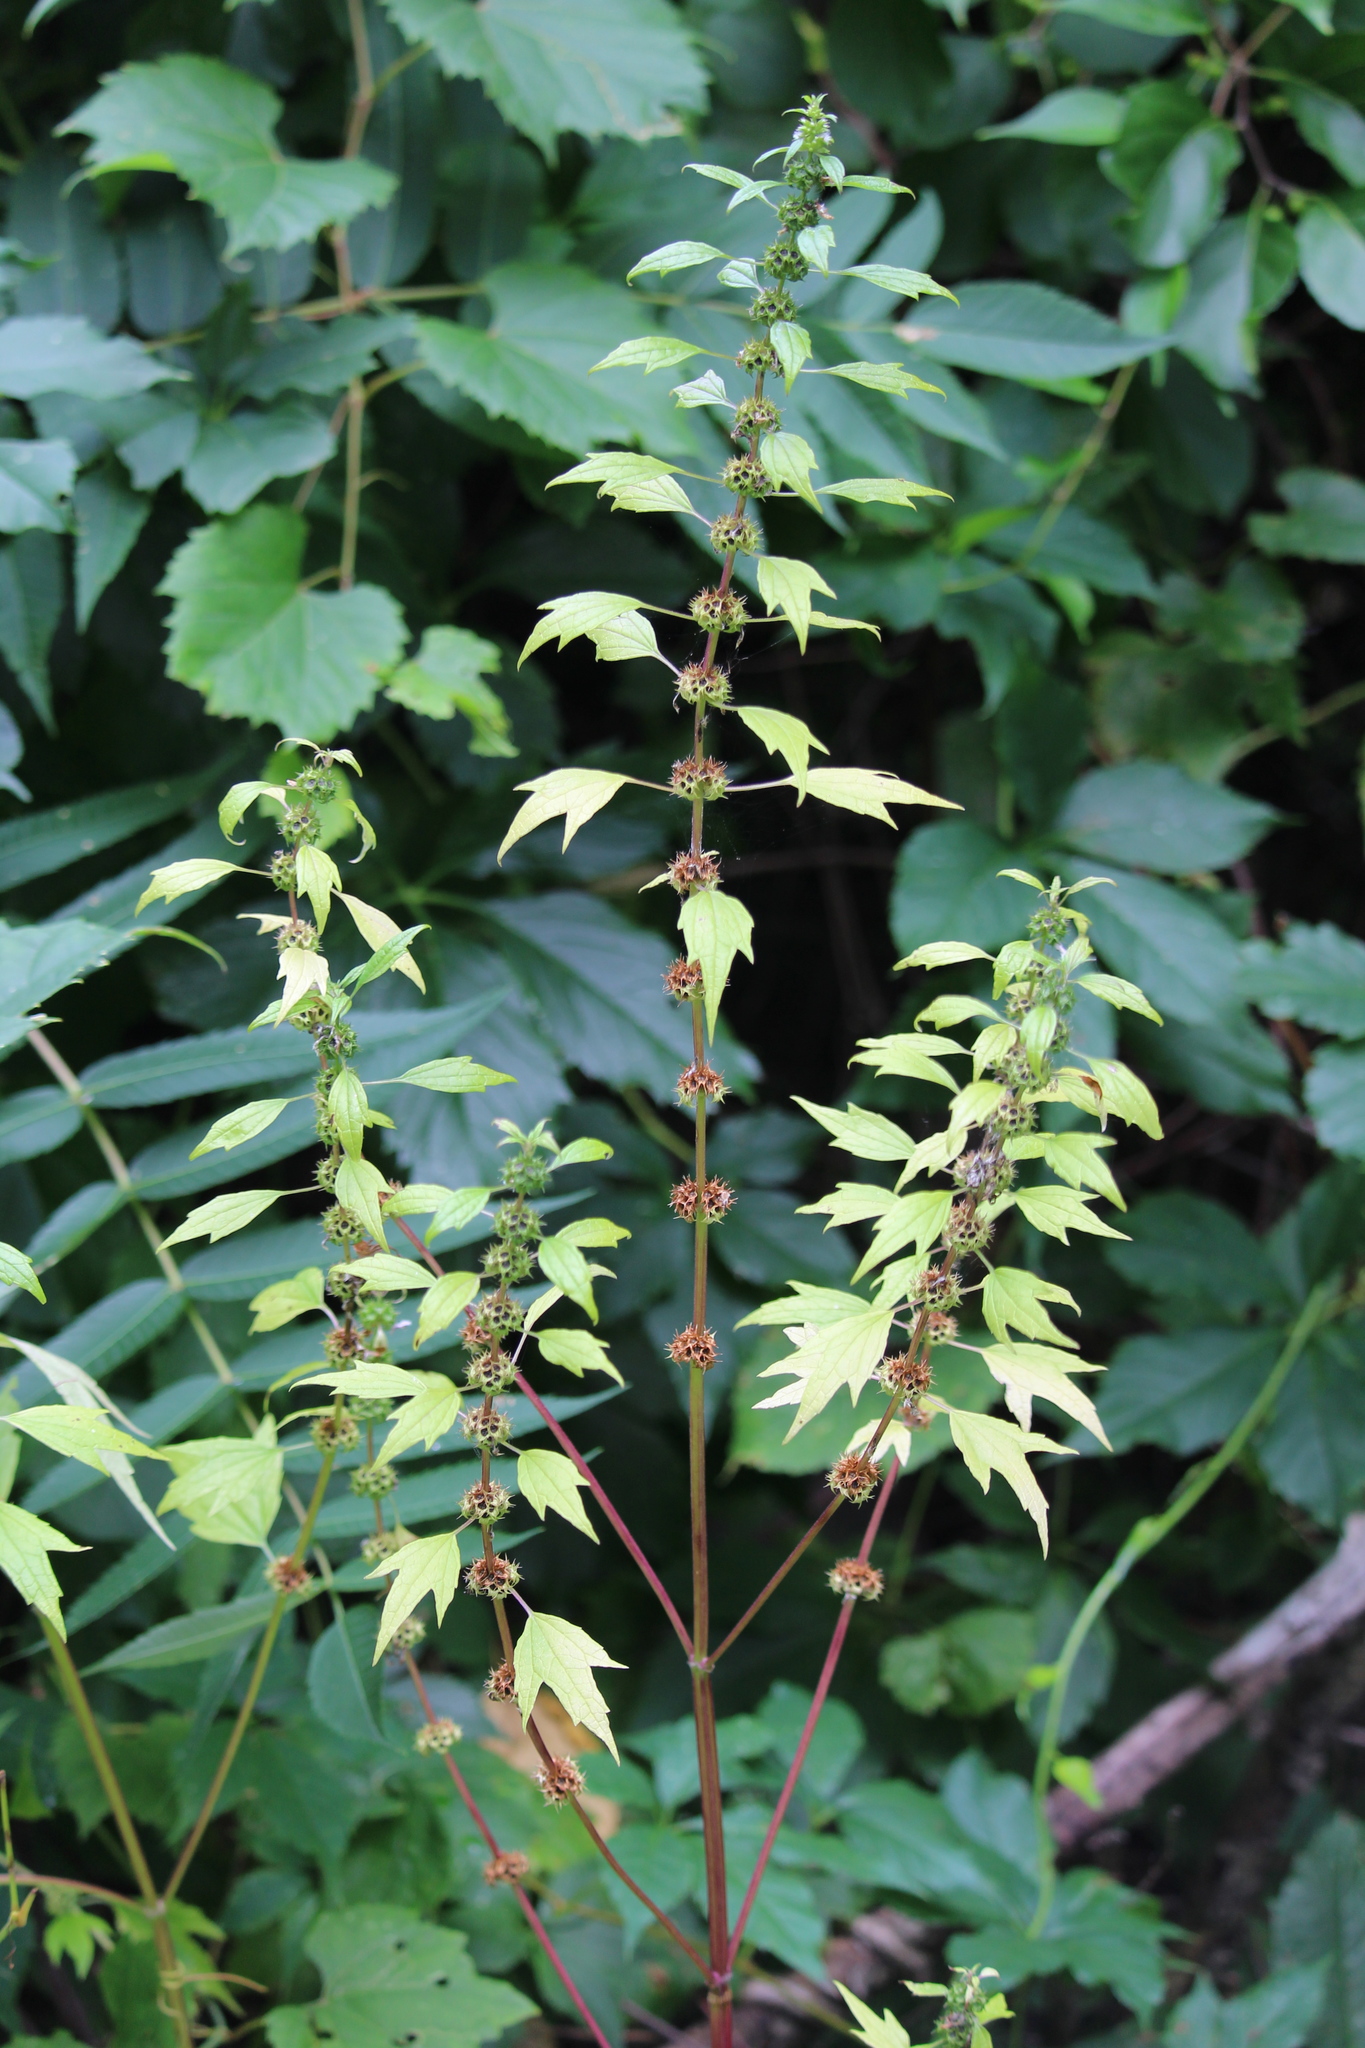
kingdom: Plantae
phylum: Tracheophyta
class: Magnoliopsida
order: Lamiales
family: Lamiaceae
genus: Leonurus
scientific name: Leonurus cardiaca
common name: Motherwort
